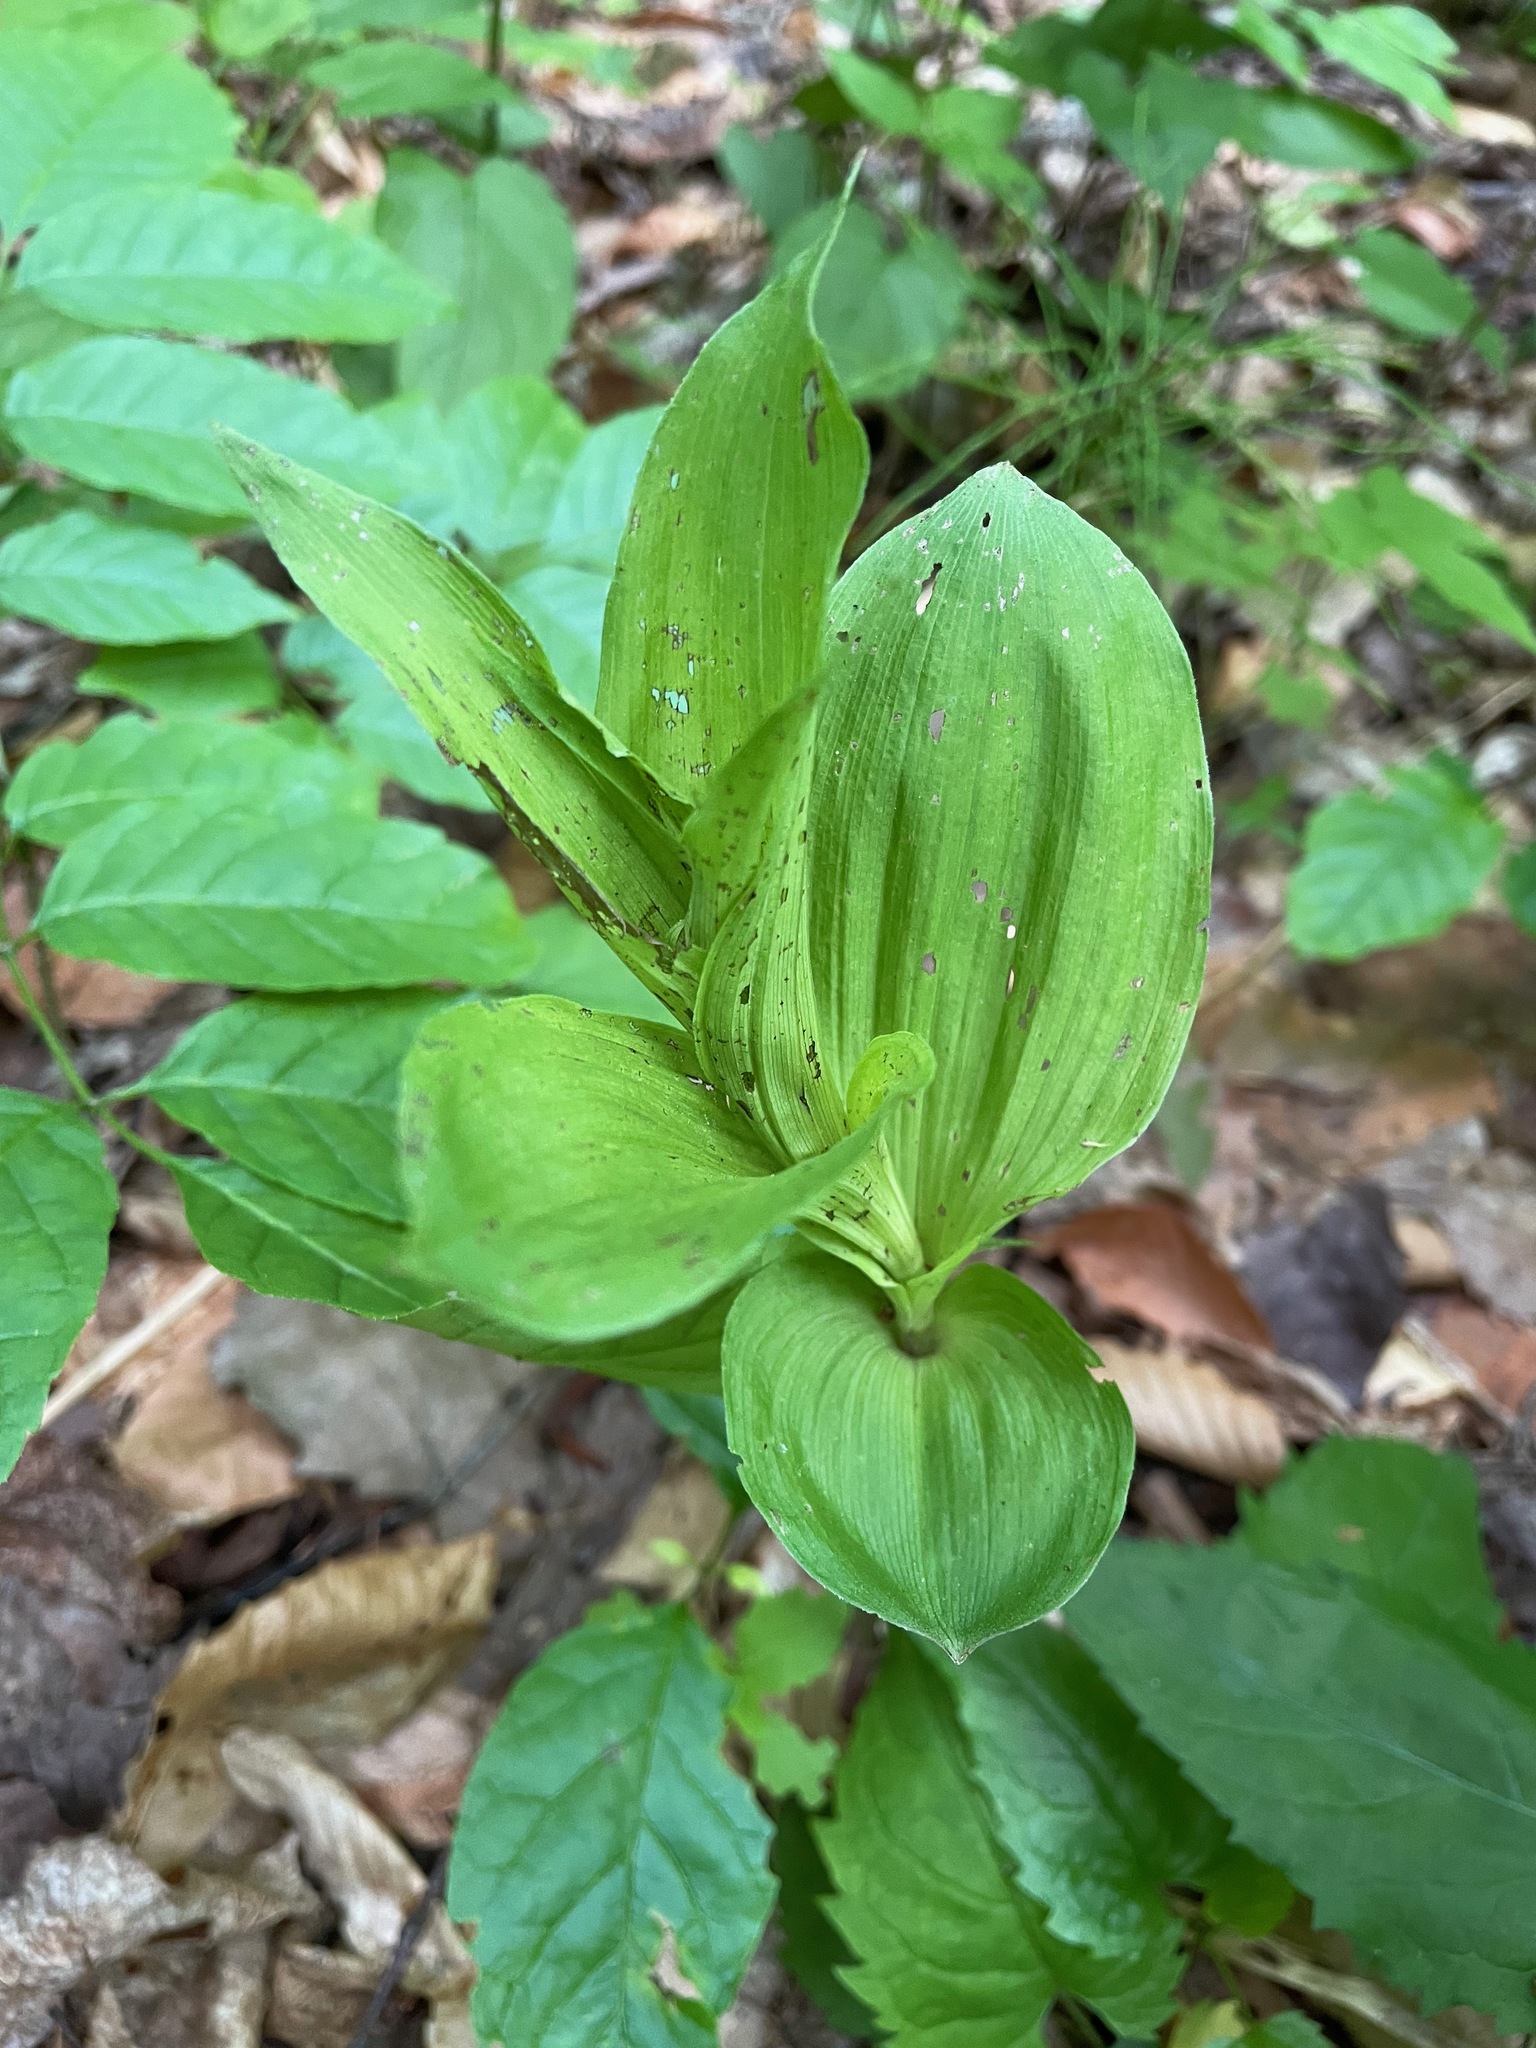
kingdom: Plantae
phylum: Tracheophyta
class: Liliopsida
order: Asparagales
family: Orchidaceae
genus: Epipactis
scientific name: Epipactis helleborine
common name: Broad-leaved helleborine
